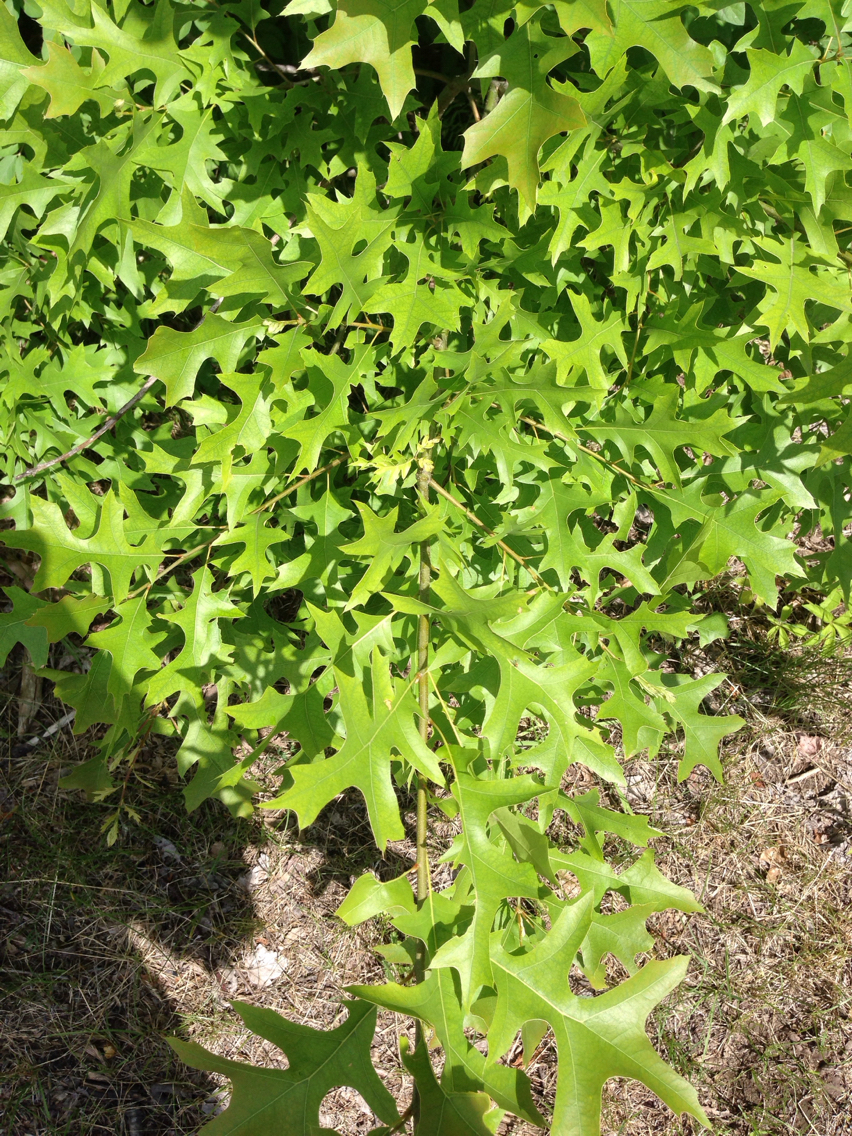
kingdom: Plantae
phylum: Tracheophyta
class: Magnoliopsida
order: Fagales
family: Fagaceae
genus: Quercus
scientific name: Quercus palustris
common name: Pin oak
